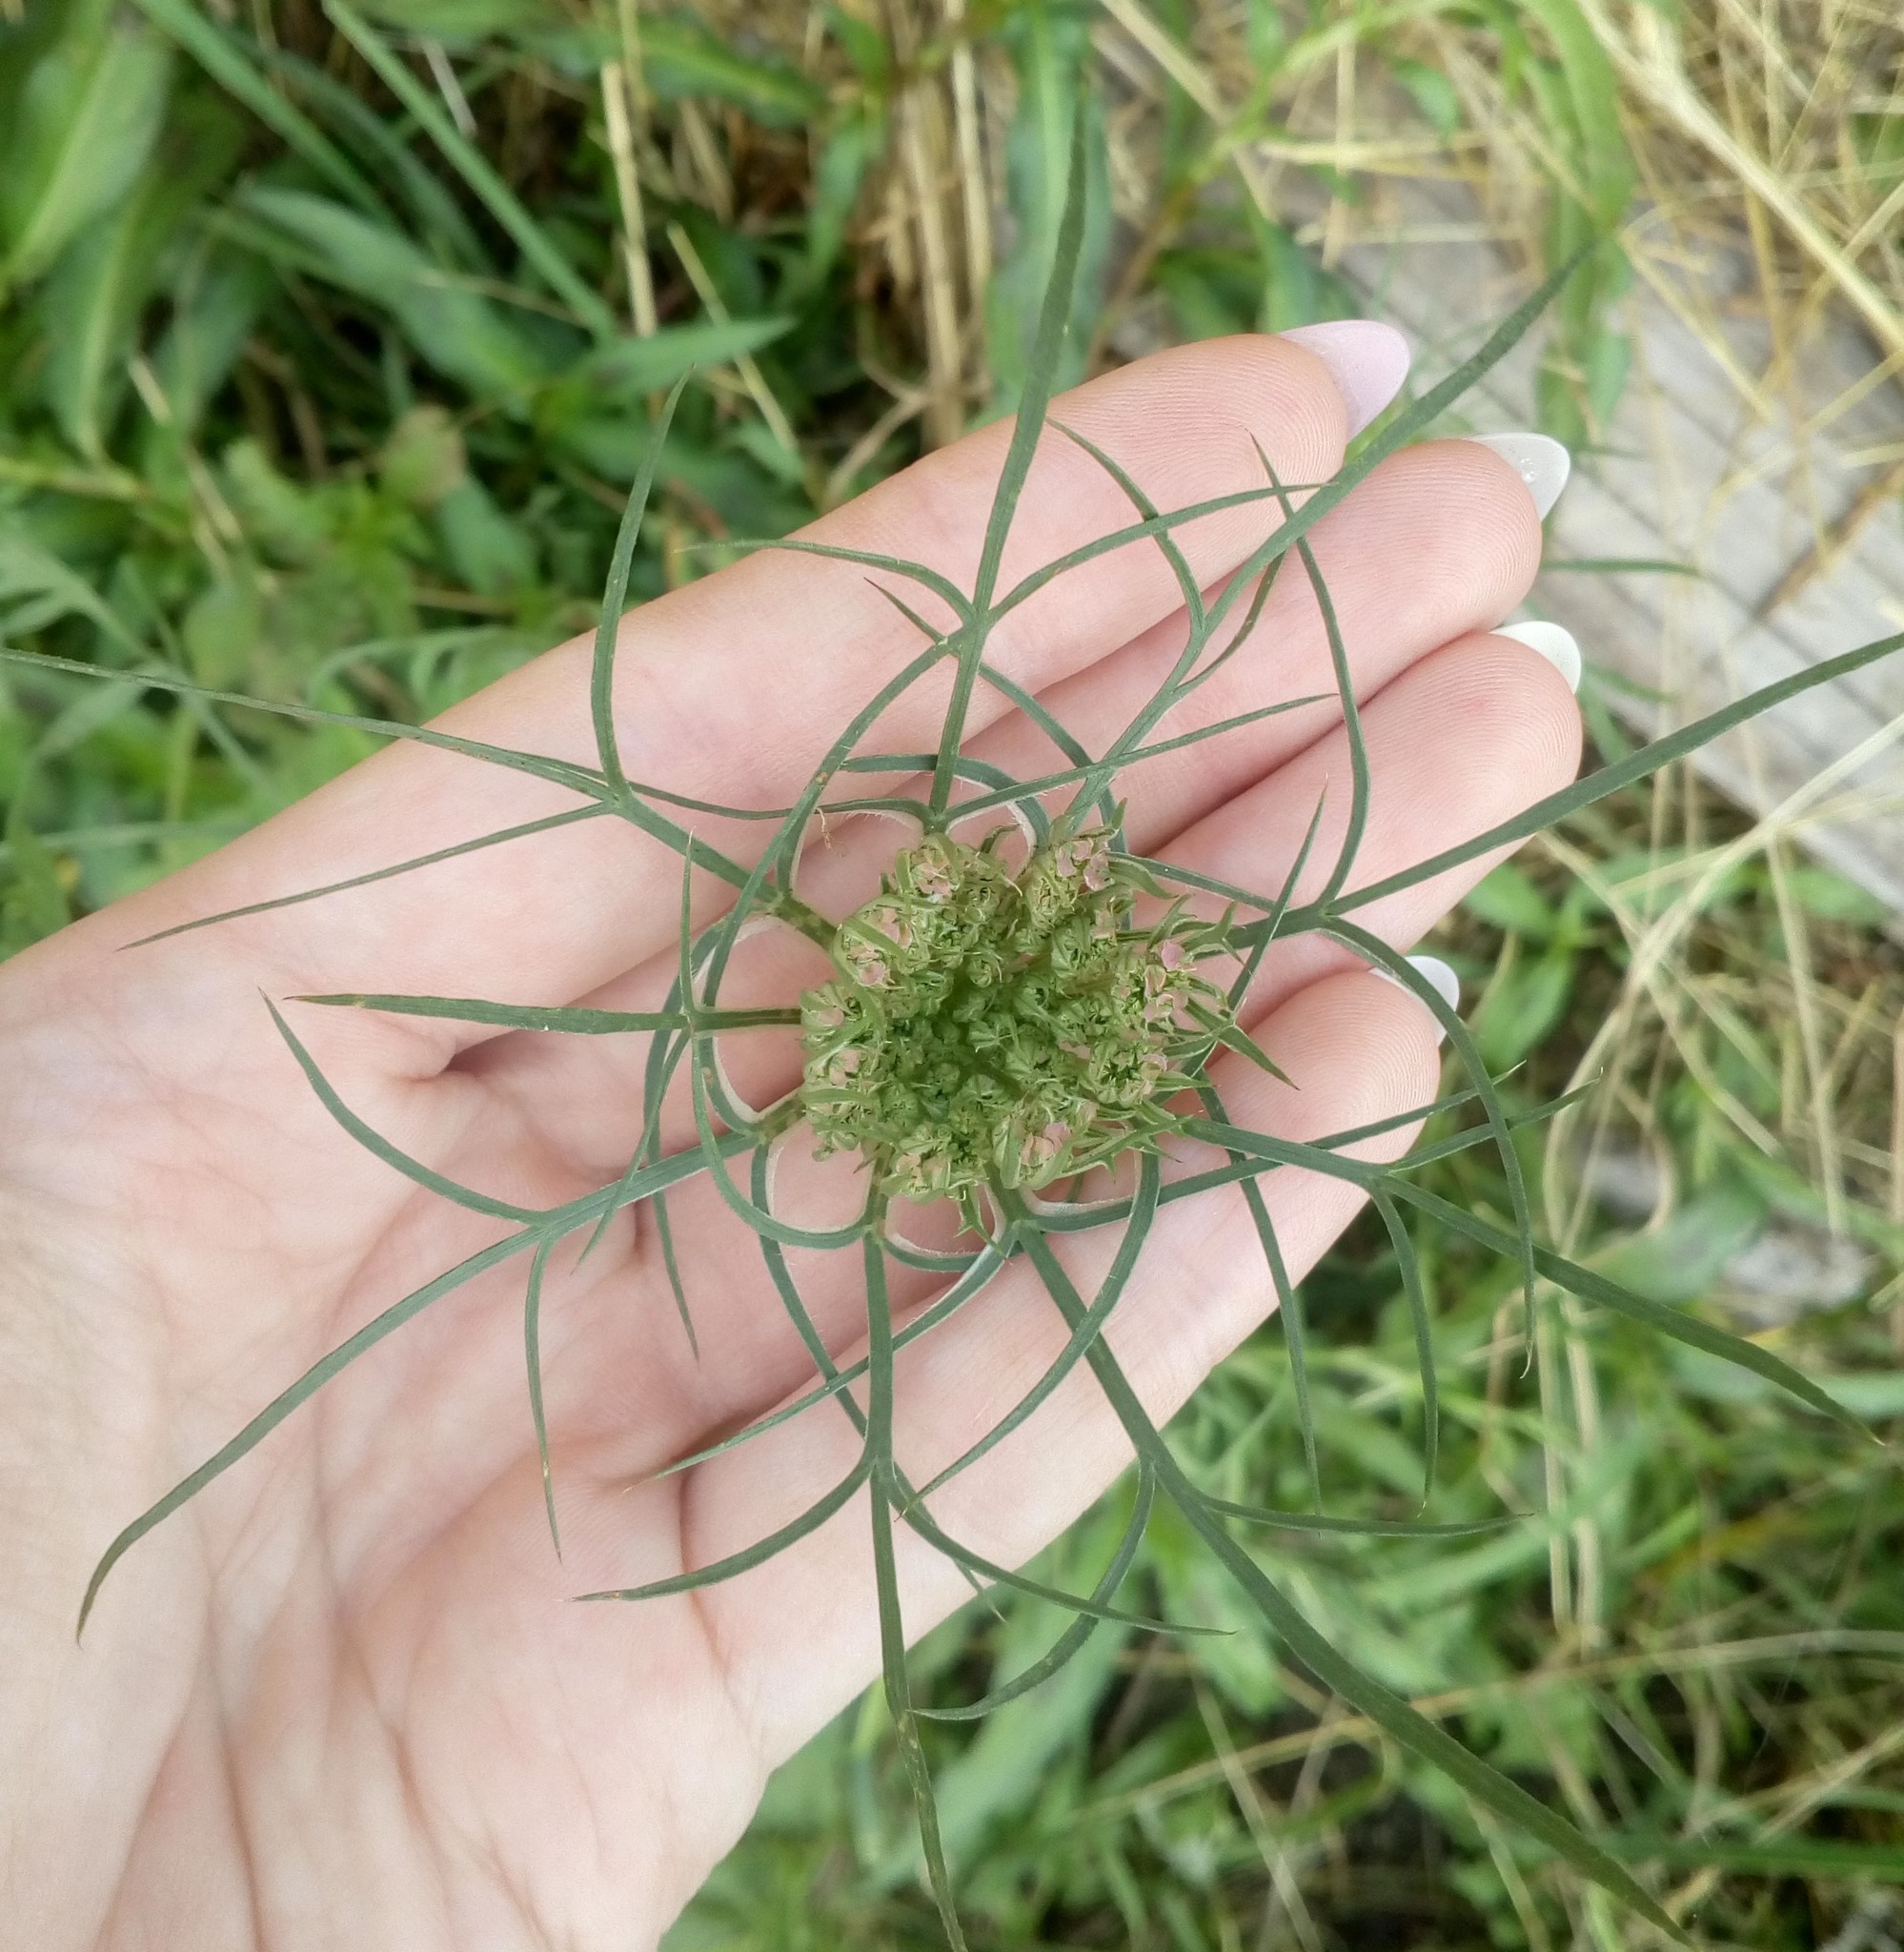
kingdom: Plantae
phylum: Tracheophyta
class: Magnoliopsida
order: Apiales
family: Apiaceae
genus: Daucus
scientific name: Daucus carota
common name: Wild carrot
